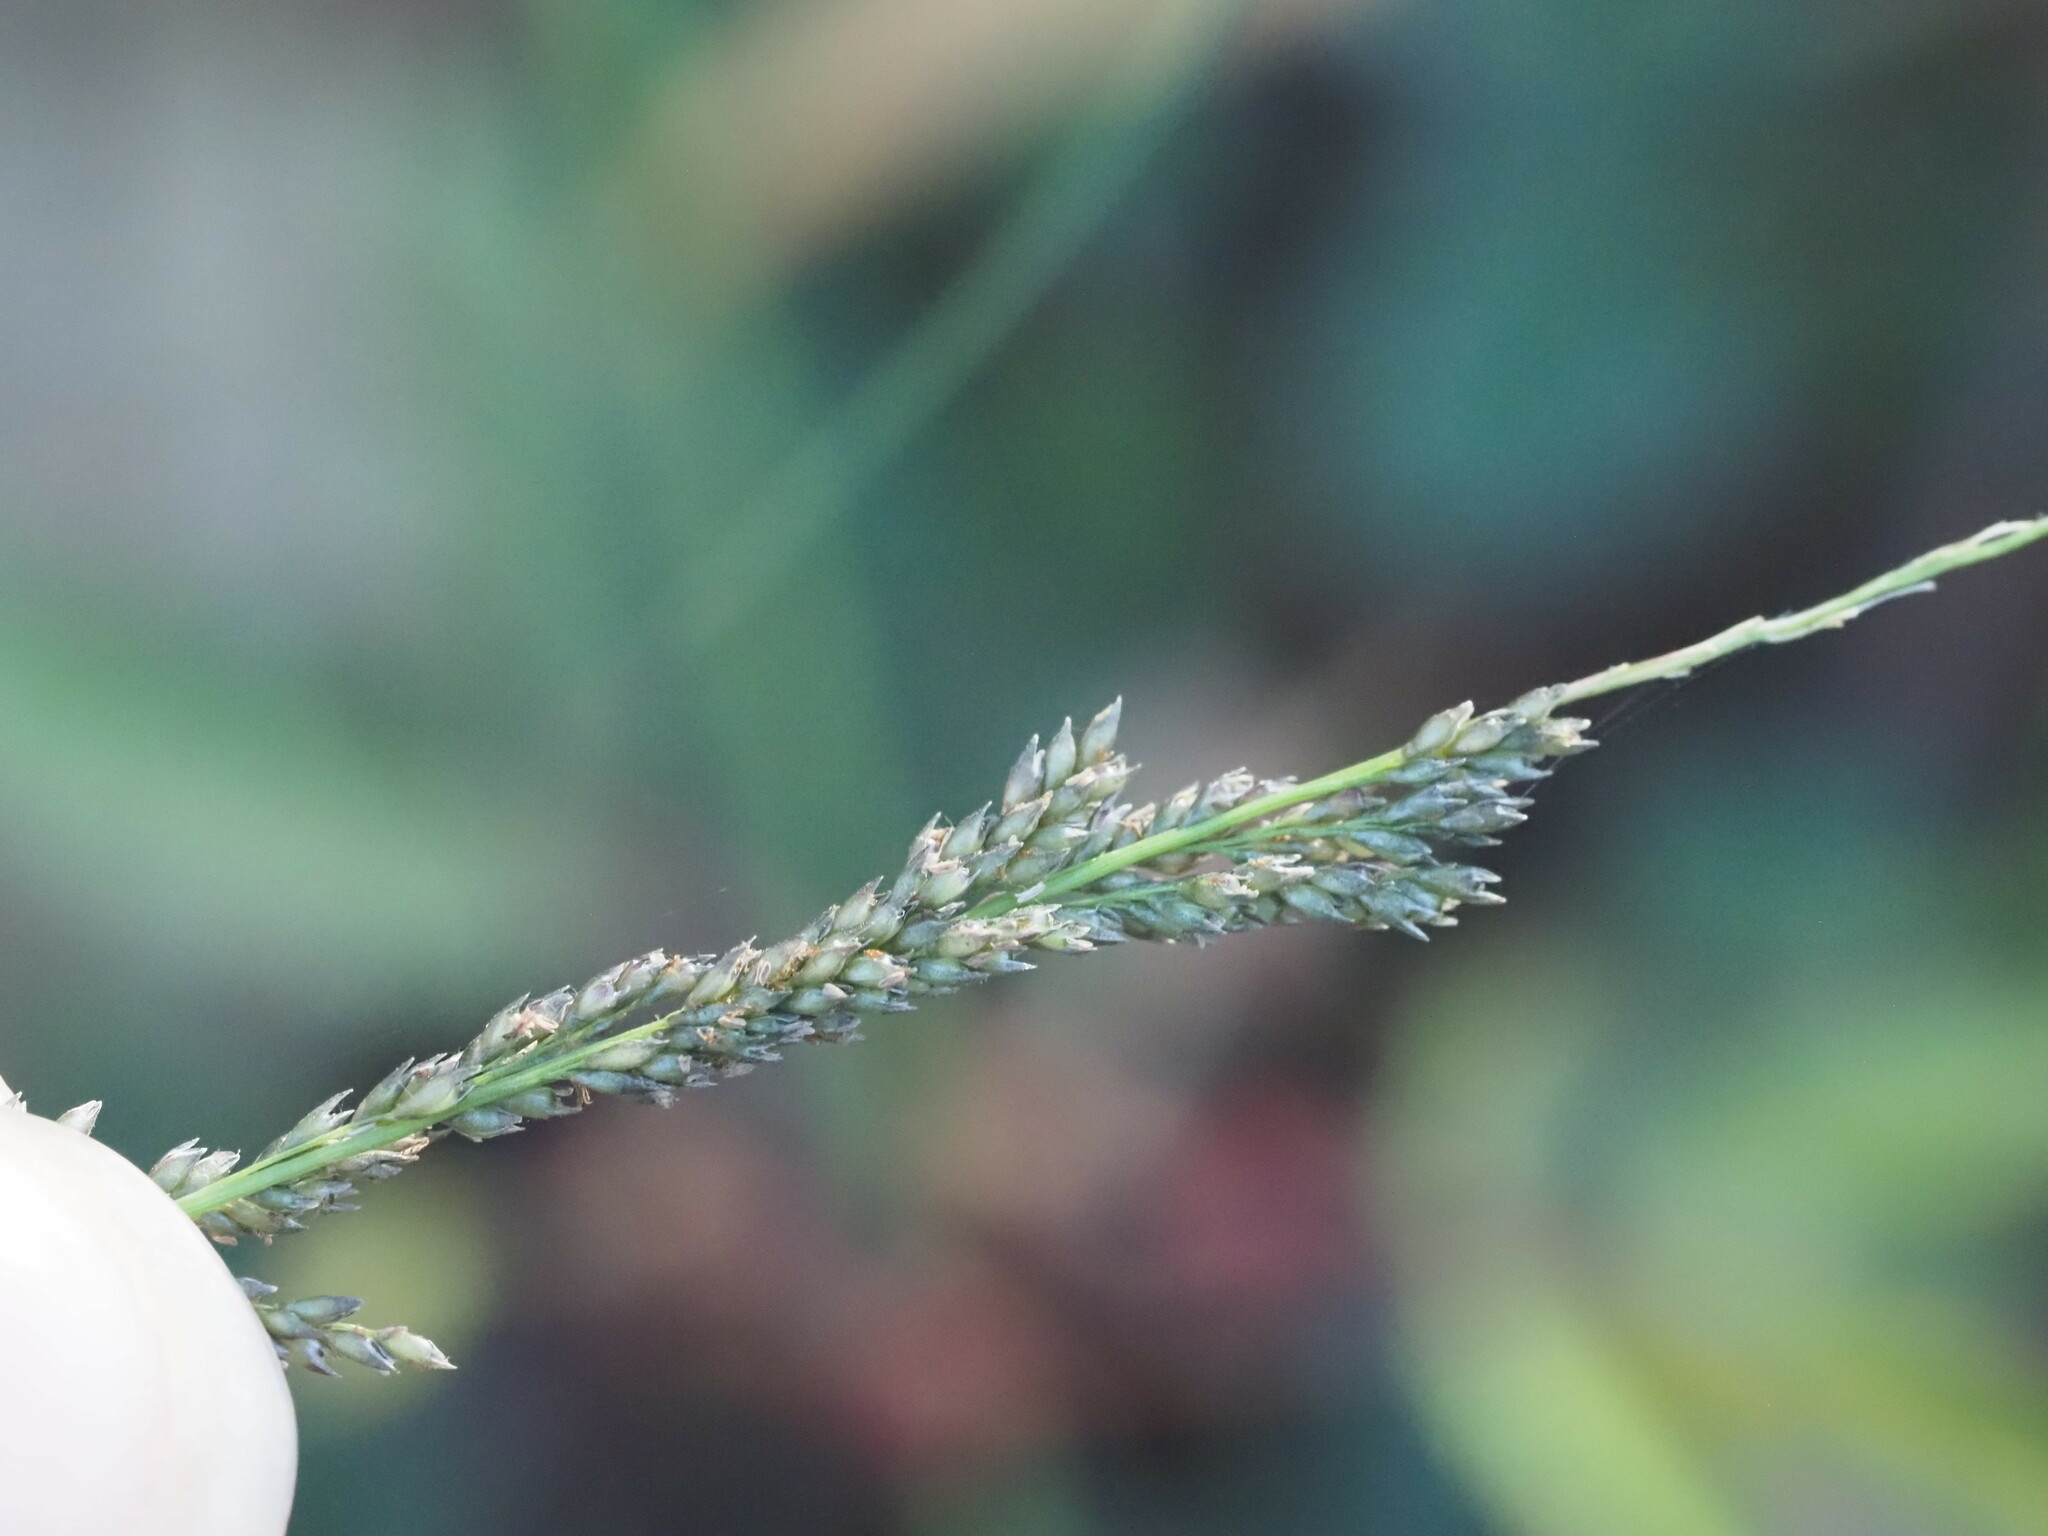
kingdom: Plantae
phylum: Tracheophyta
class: Magnoliopsida
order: Malvales
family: Malvaceae
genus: Sida
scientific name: Sida cordifolia
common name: Ilima
